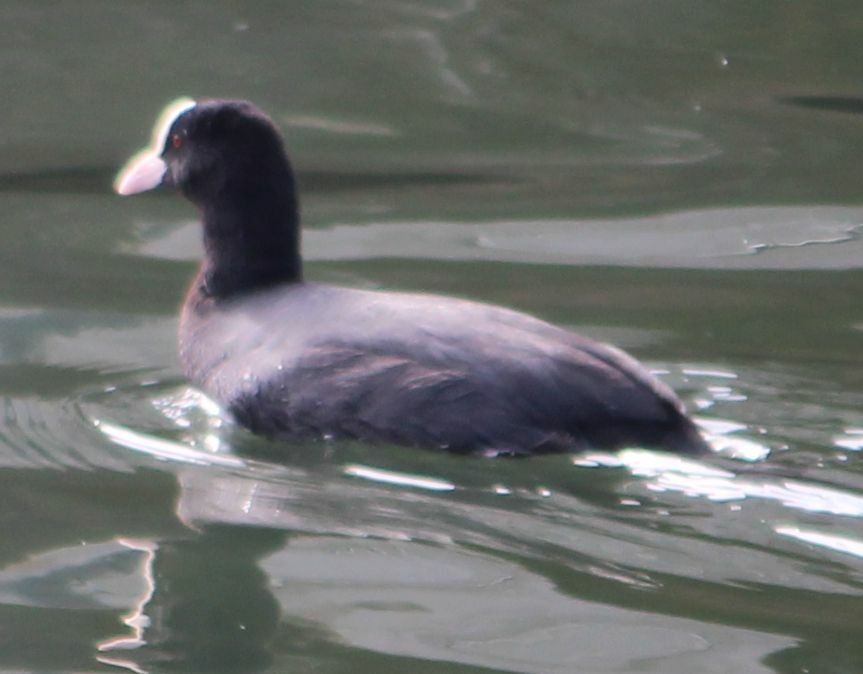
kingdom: Animalia
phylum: Chordata
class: Aves
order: Gruiformes
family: Rallidae
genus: Fulica
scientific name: Fulica atra
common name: Eurasian coot
